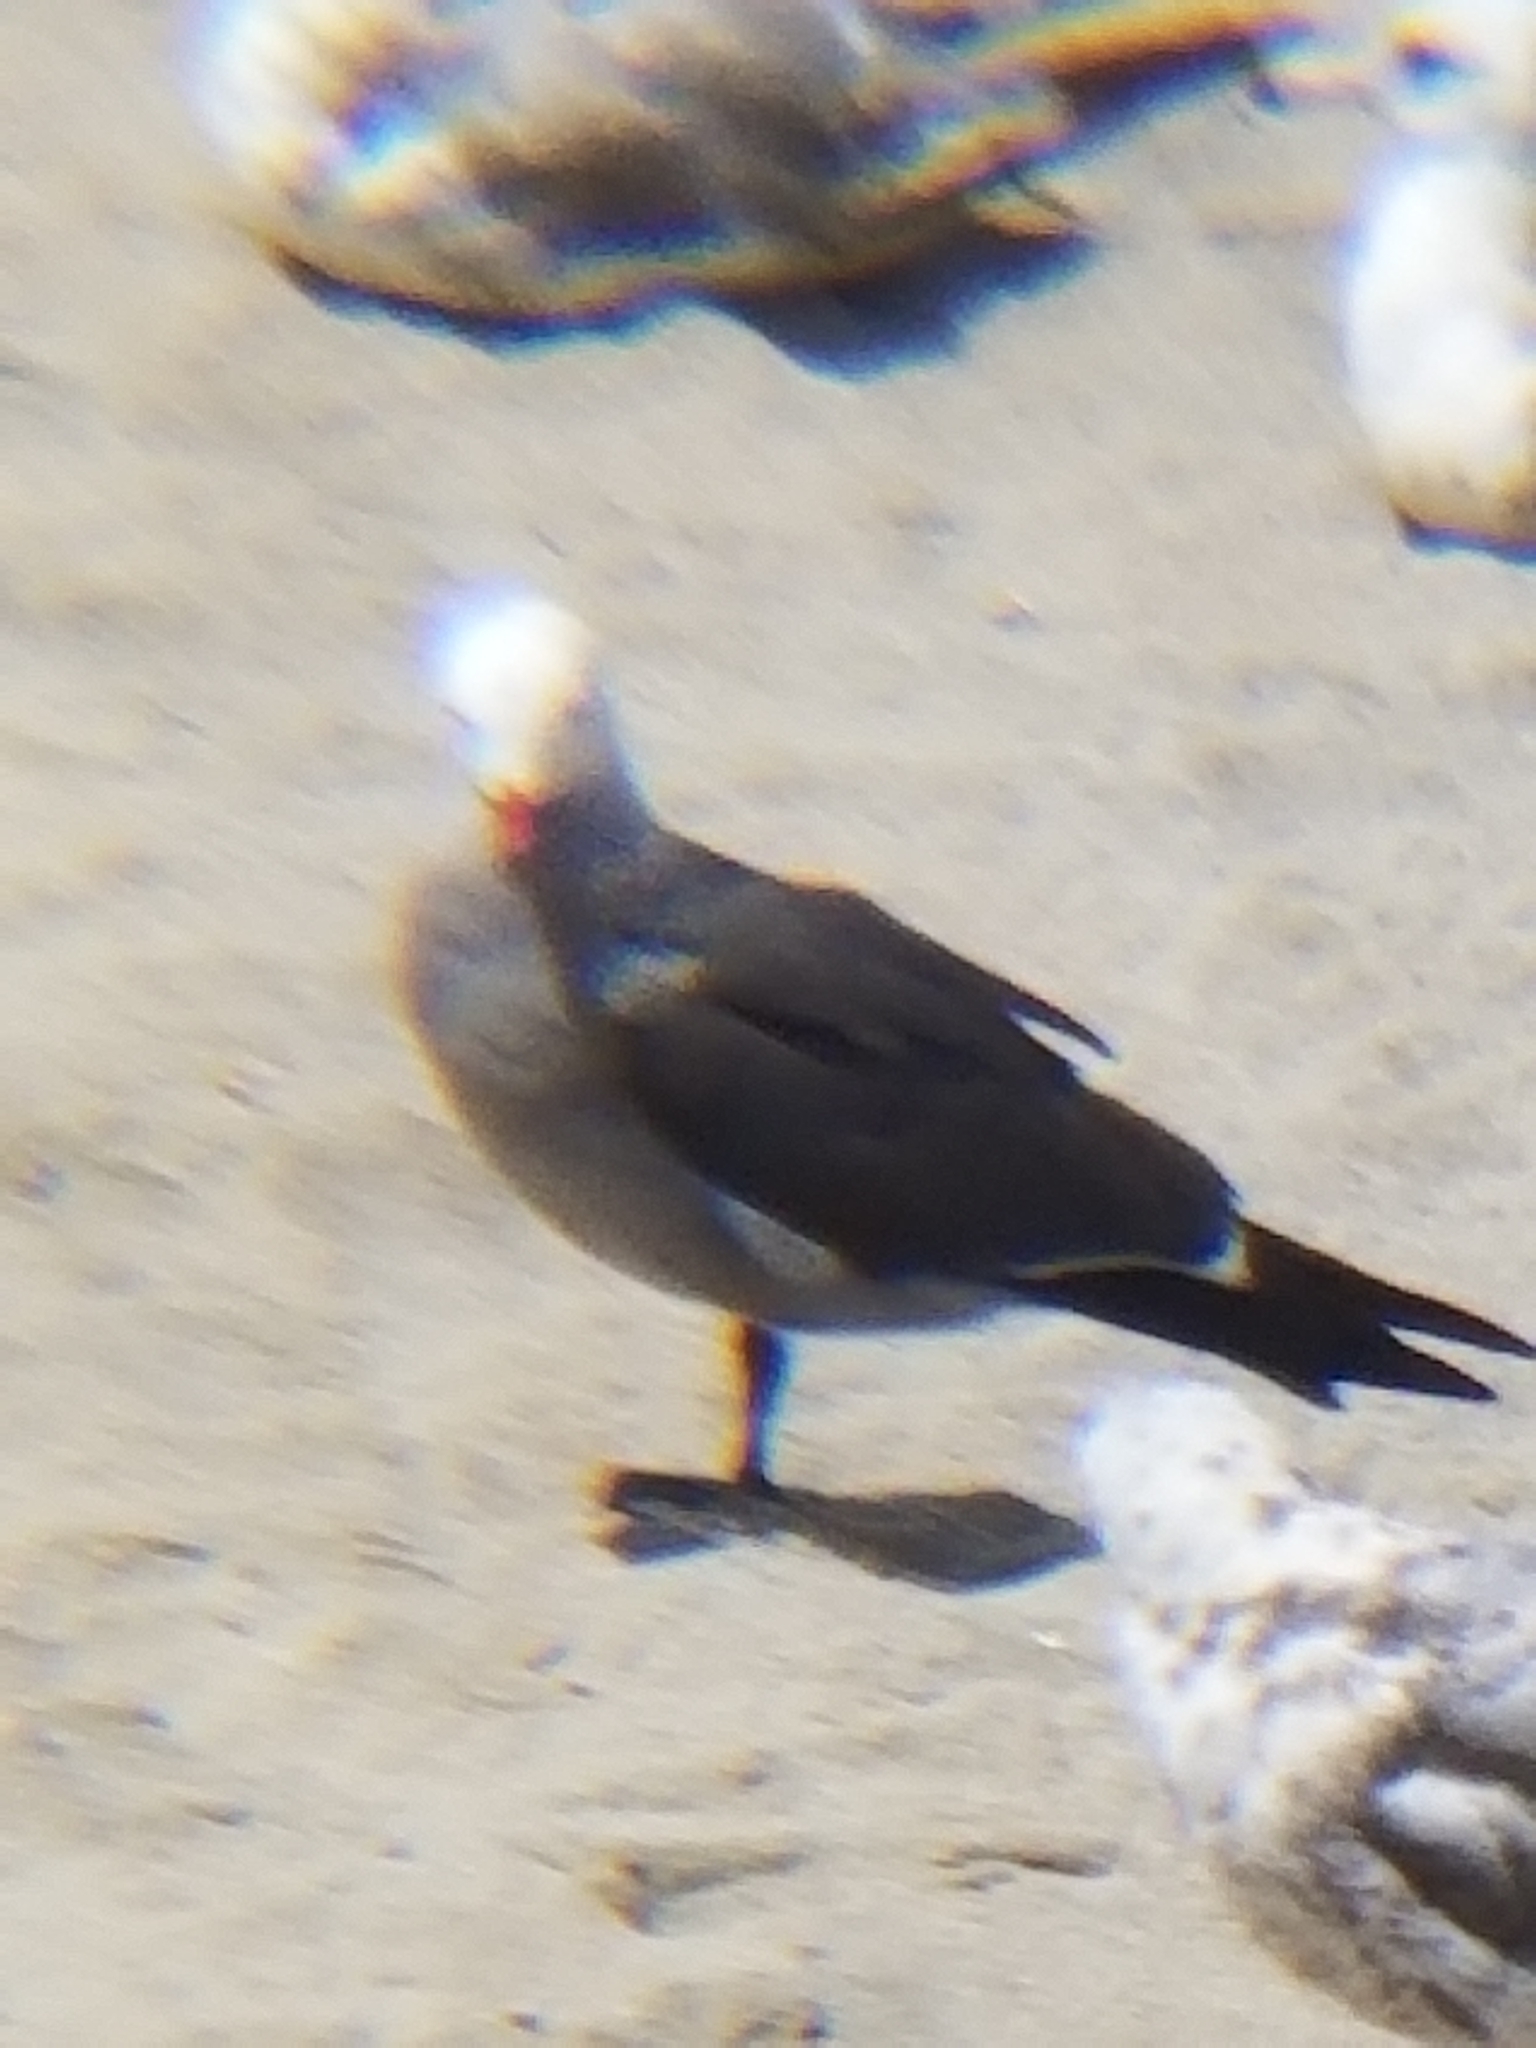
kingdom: Animalia
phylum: Chordata
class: Aves
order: Charadriiformes
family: Laridae
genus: Larus
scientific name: Larus heermanni
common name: Heermann's gull
